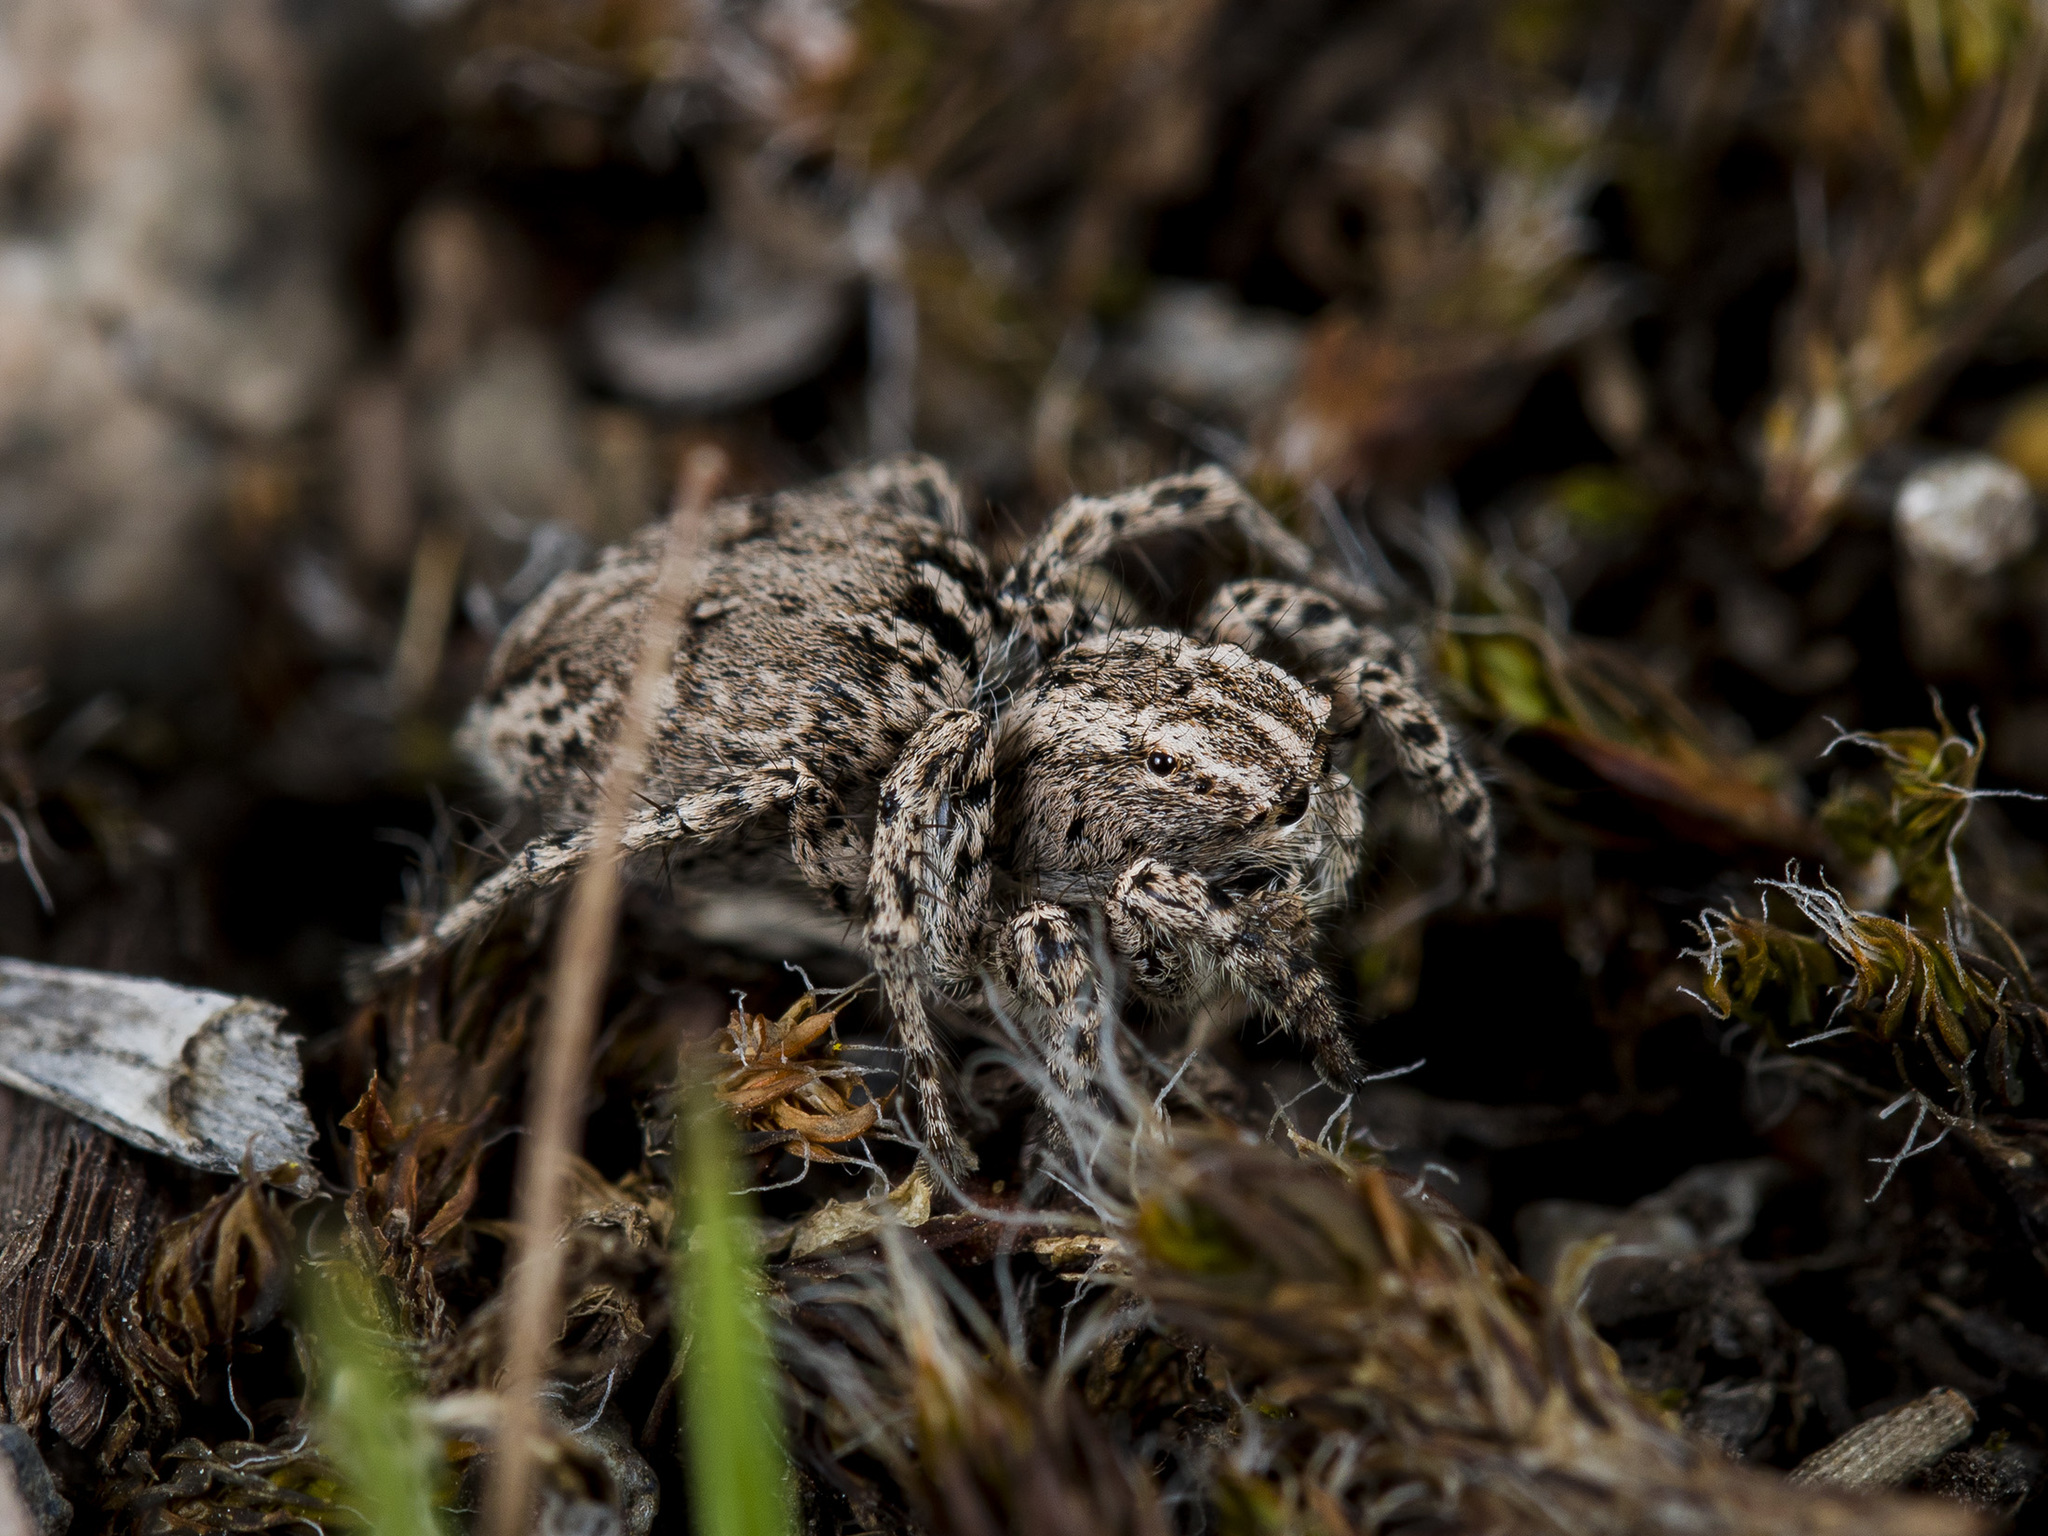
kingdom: Animalia
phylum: Arthropoda
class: Arachnida
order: Araneae
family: Salticidae
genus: Aelurillus
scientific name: Aelurillus m-nigrum
